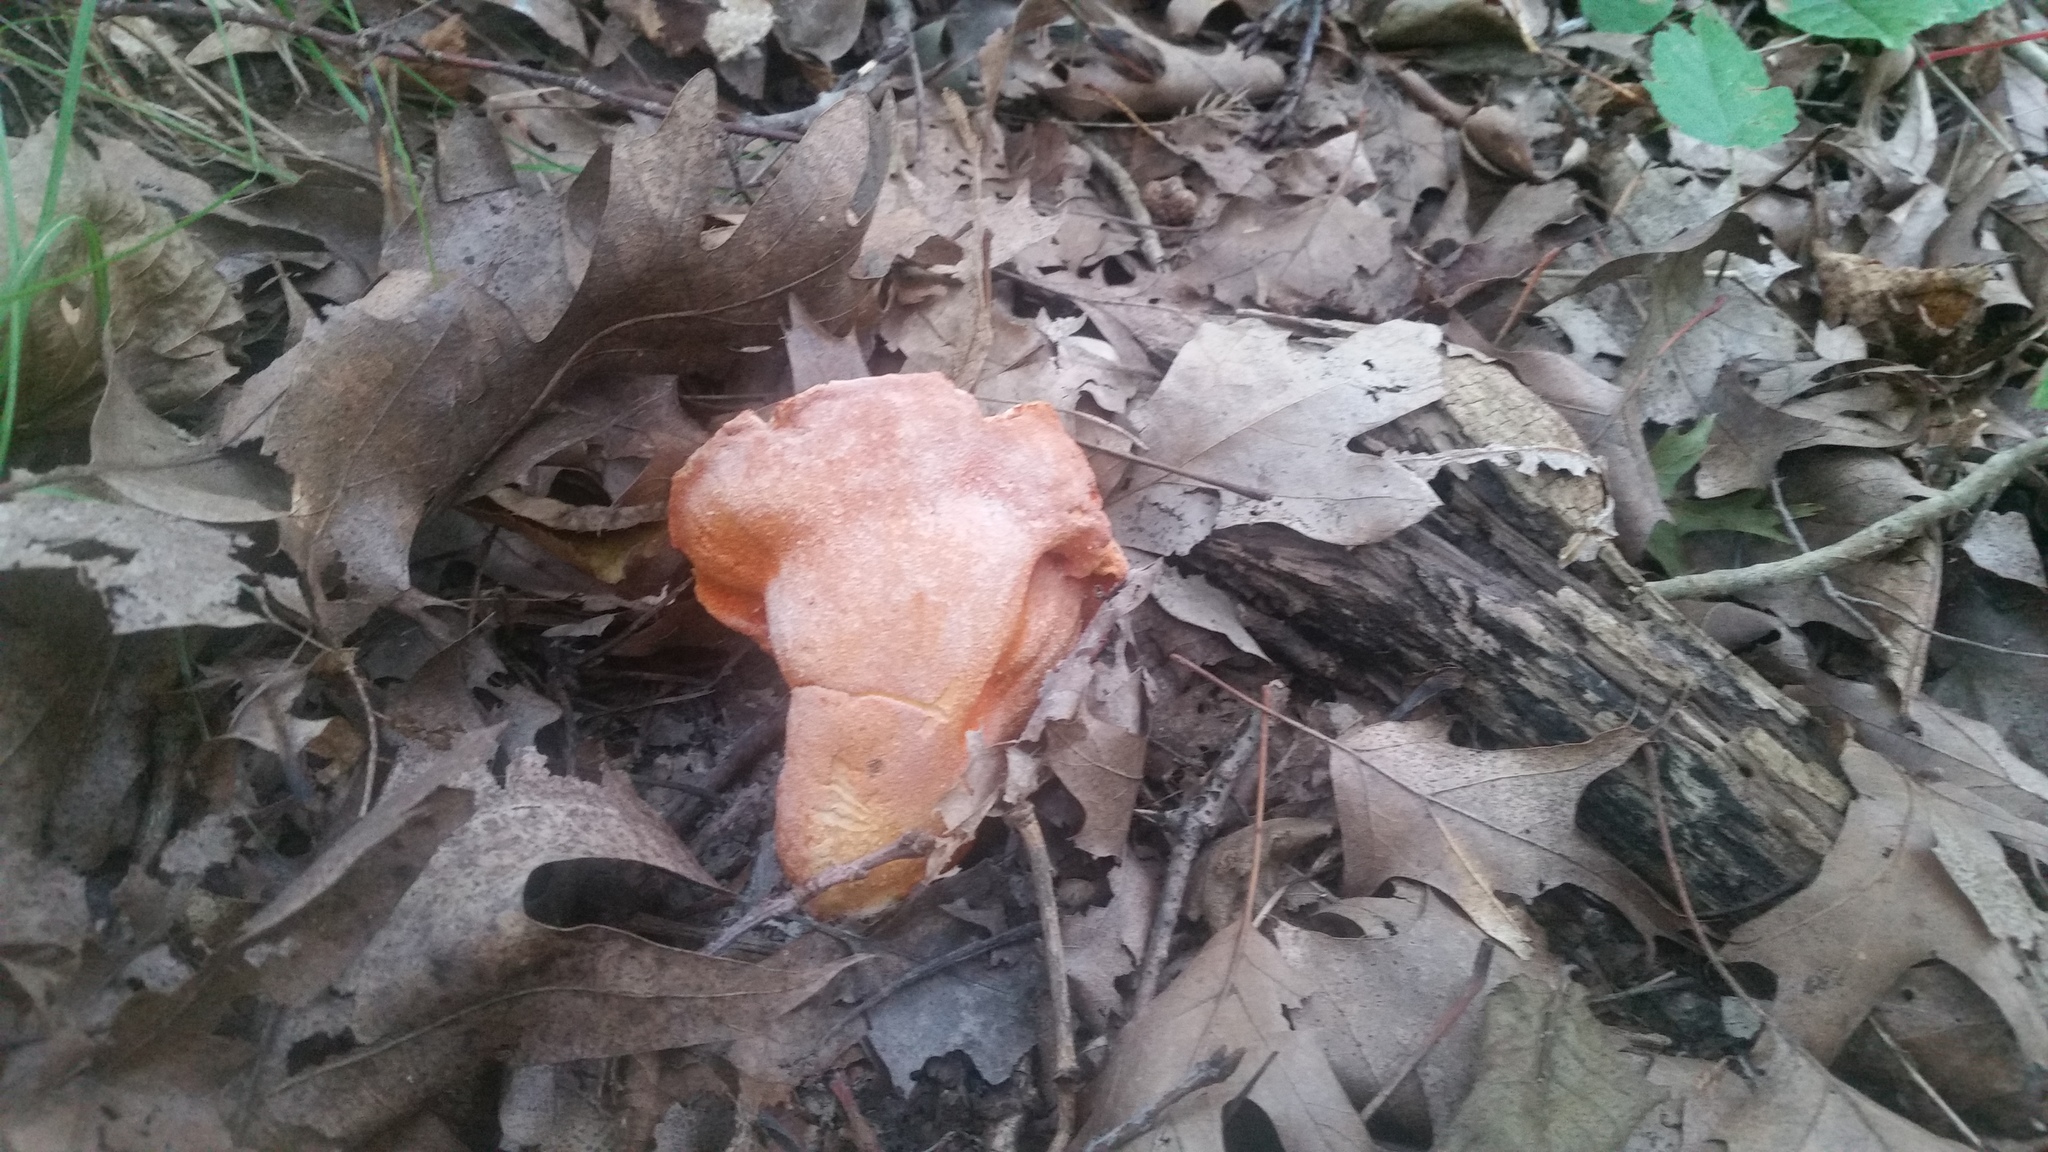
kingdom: Fungi
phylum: Ascomycota
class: Sordariomycetes
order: Hypocreales
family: Hypocreaceae
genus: Hypomyces
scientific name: Hypomyces lactifluorum
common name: Lobster mushroom
